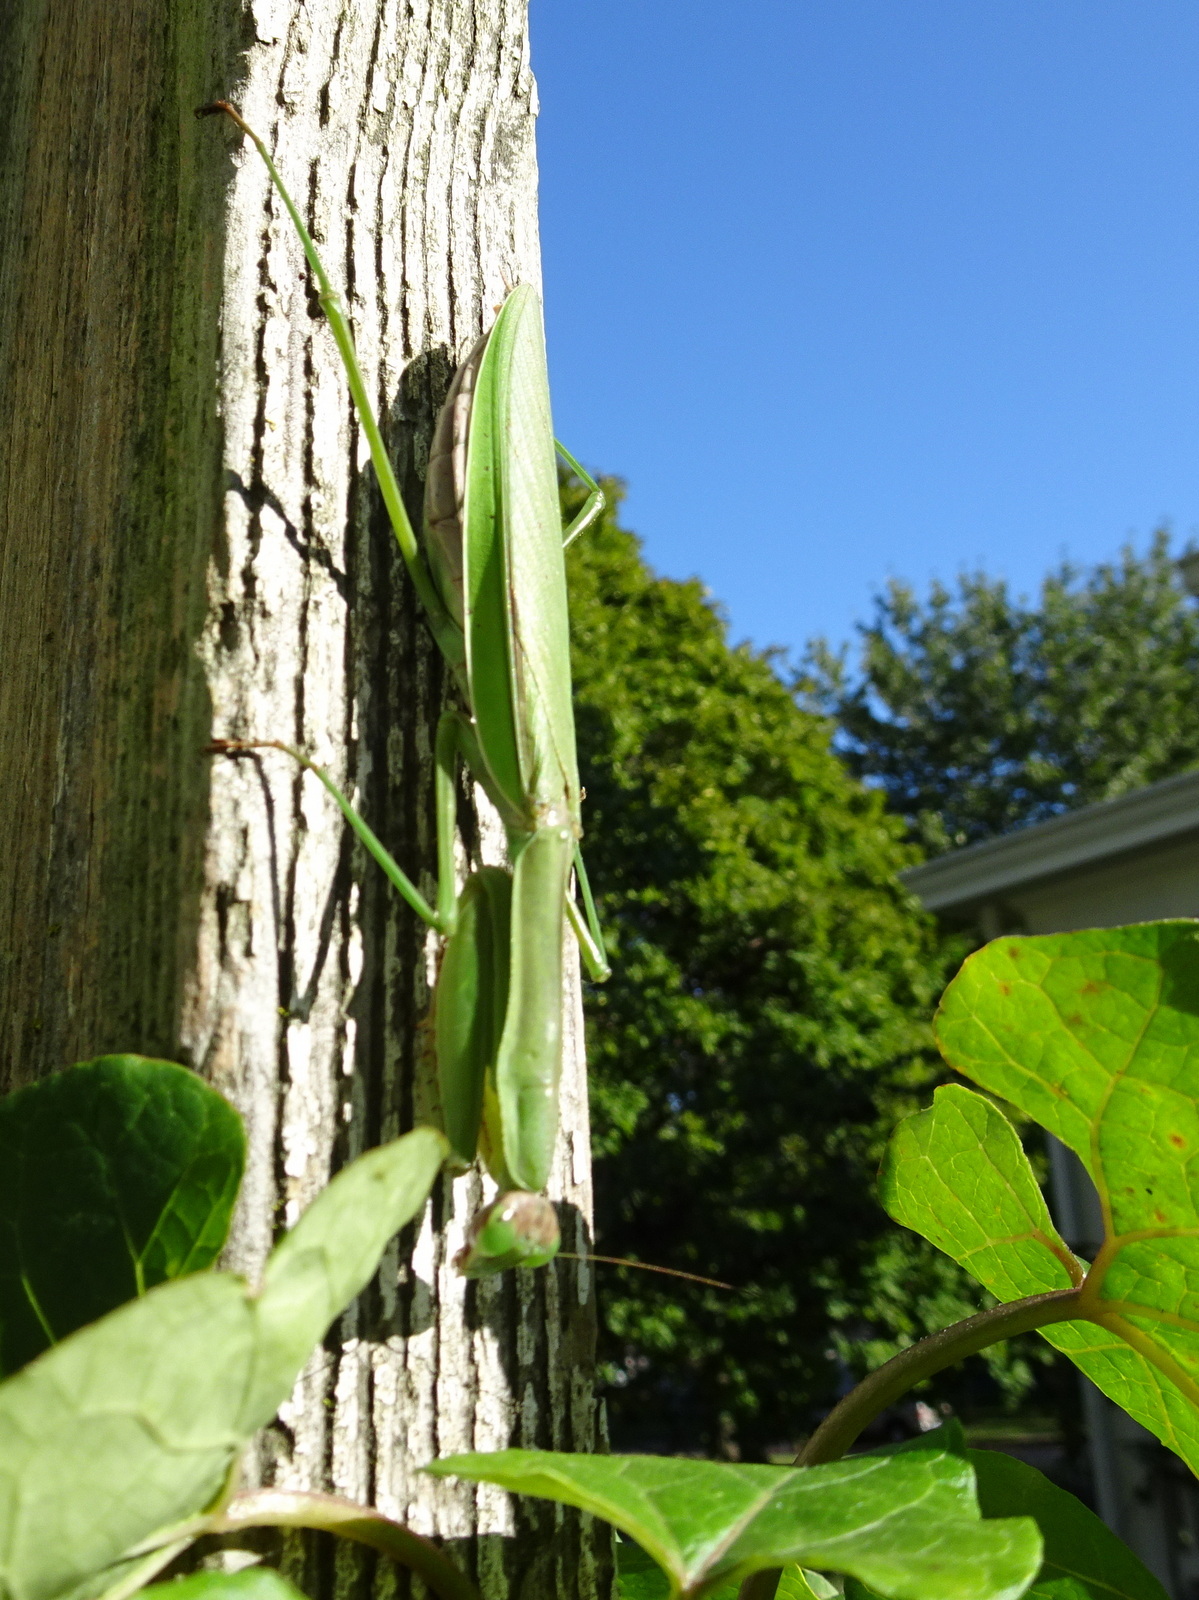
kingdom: Animalia
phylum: Arthropoda
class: Insecta
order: Mantodea
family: Mantidae
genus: Tenodera
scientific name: Tenodera sinensis
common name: Chinese mantis
